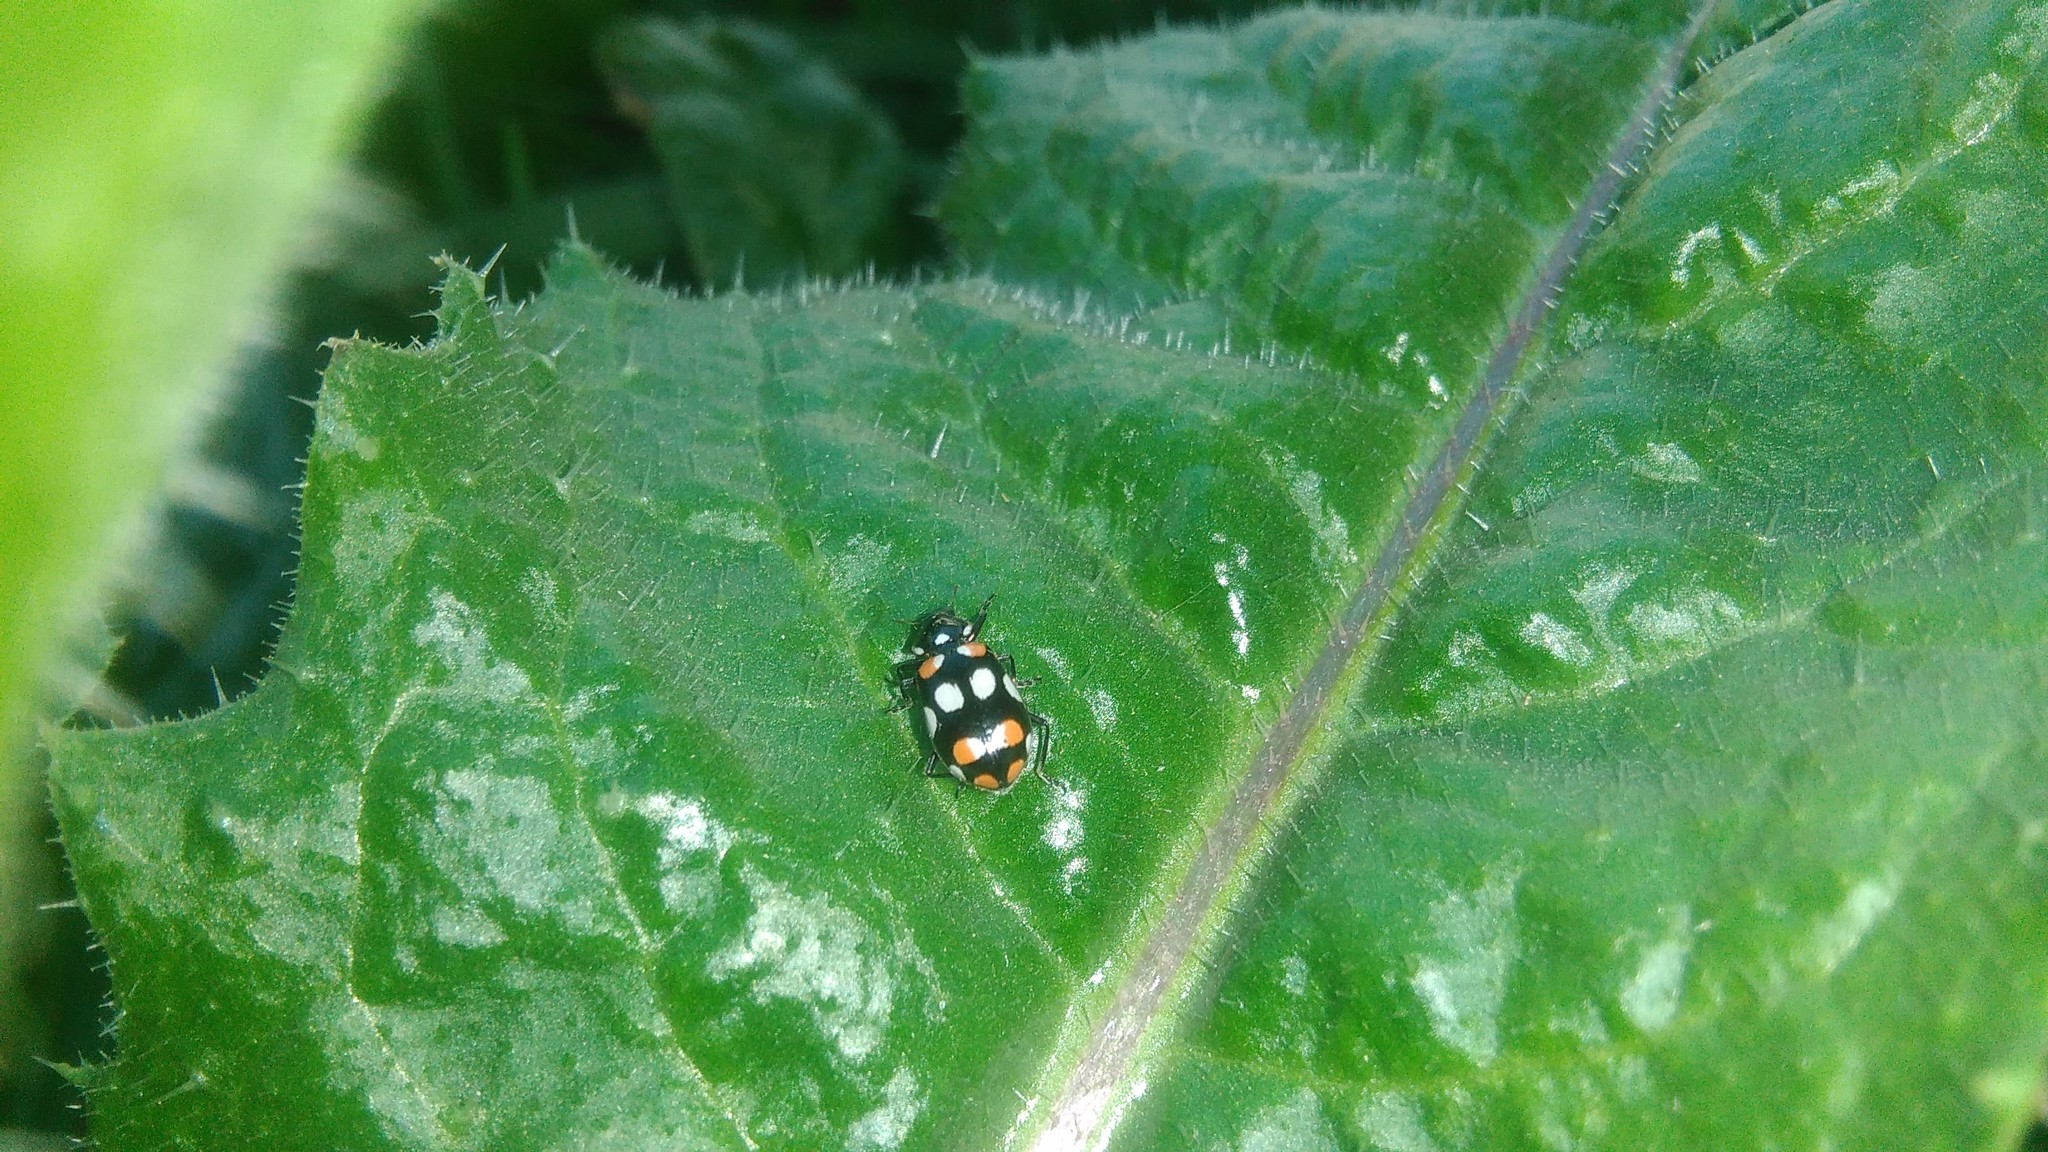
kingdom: Animalia
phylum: Arthropoda
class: Insecta
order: Coleoptera
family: Coccinellidae
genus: Eriopis
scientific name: Eriopis connexa
